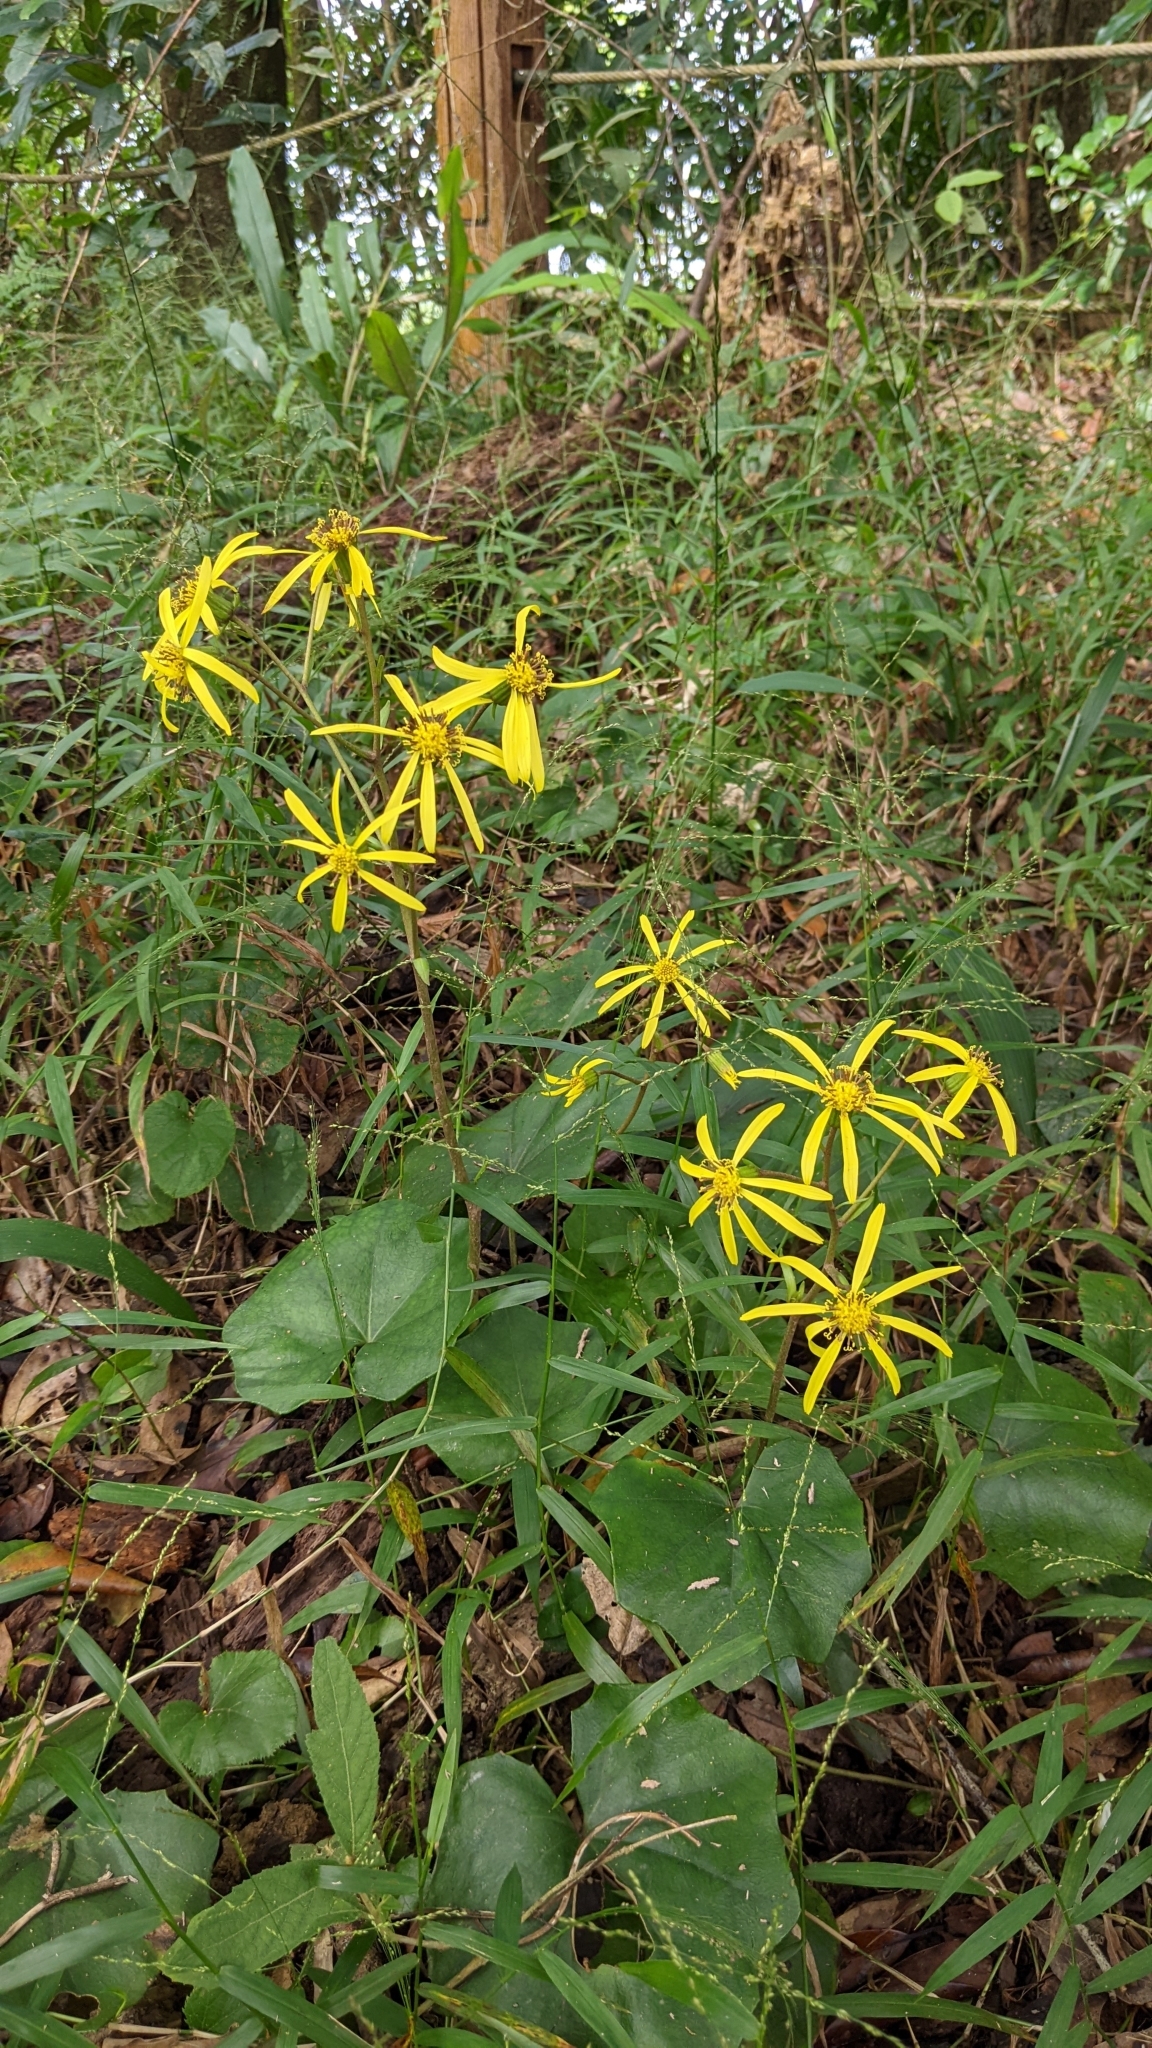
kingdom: Plantae
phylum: Tracheophyta
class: Magnoliopsida
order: Asterales
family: Asteraceae
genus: Farfugium
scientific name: Farfugium japonicum
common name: Leopardplant
